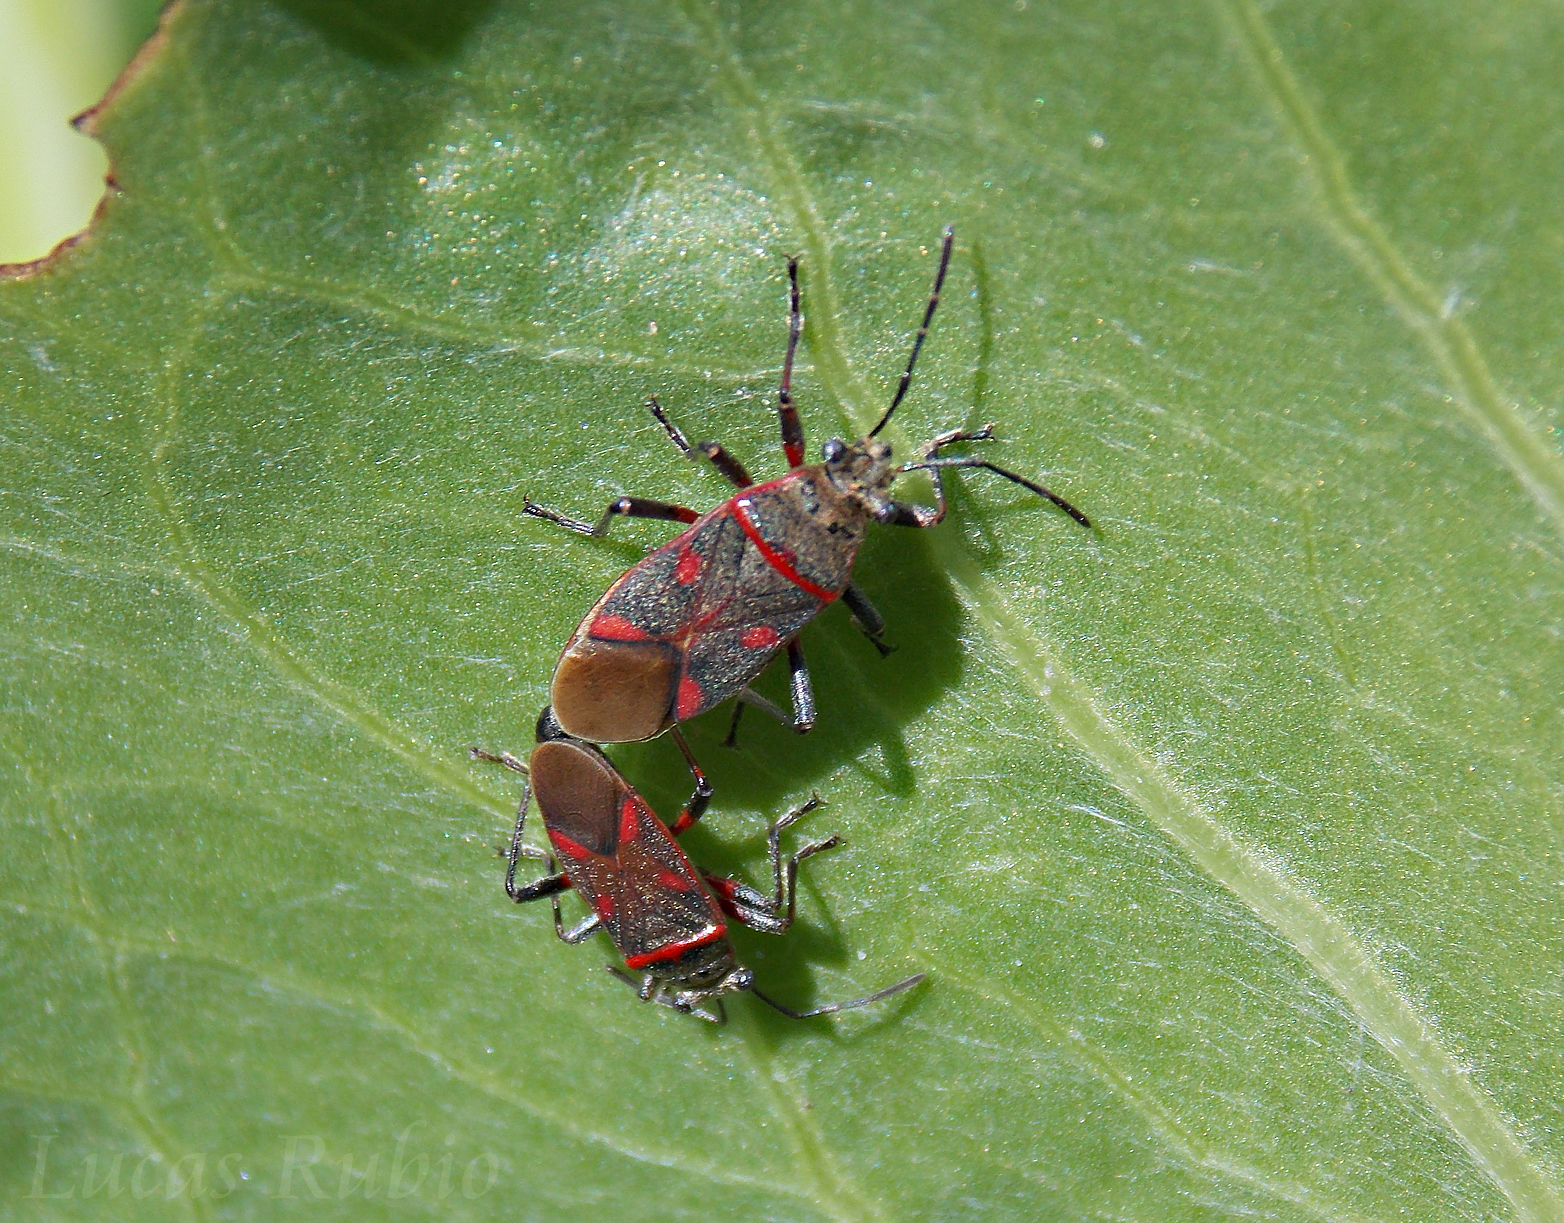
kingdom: Animalia
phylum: Arthropoda
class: Insecta
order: Hemiptera
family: Largidae
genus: Acinocoris
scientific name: Acinocoris lunaris
